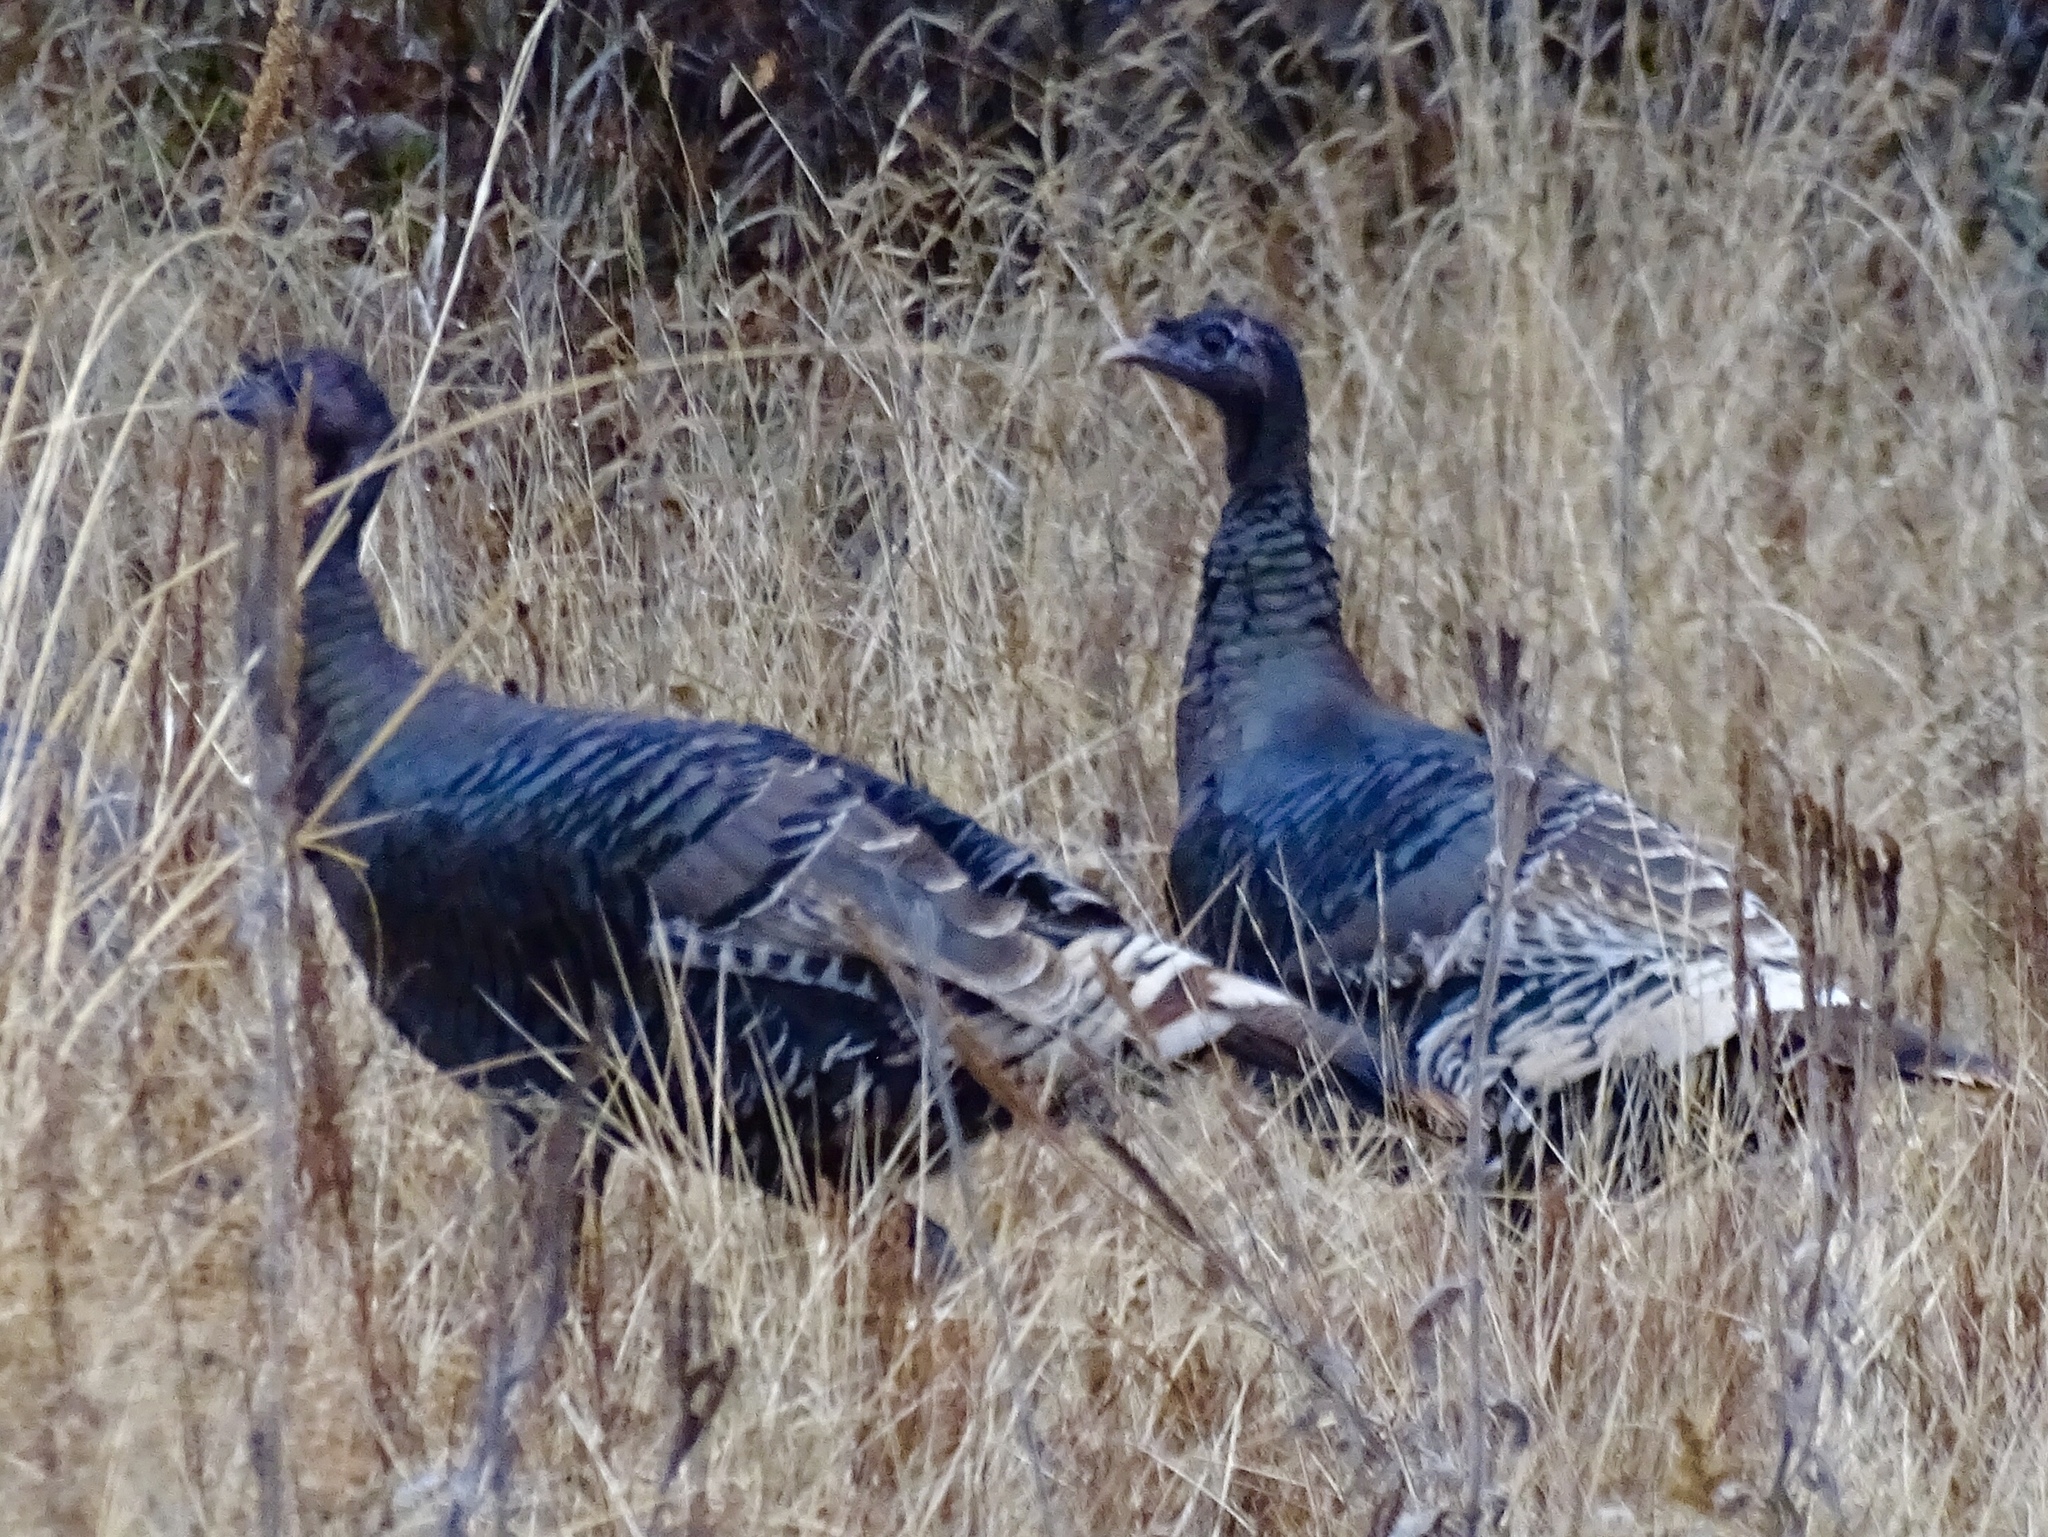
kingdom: Animalia
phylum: Chordata
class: Aves
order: Galliformes
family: Phasianidae
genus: Meleagris
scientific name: Meleagris gallopavo
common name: Wild turkey
